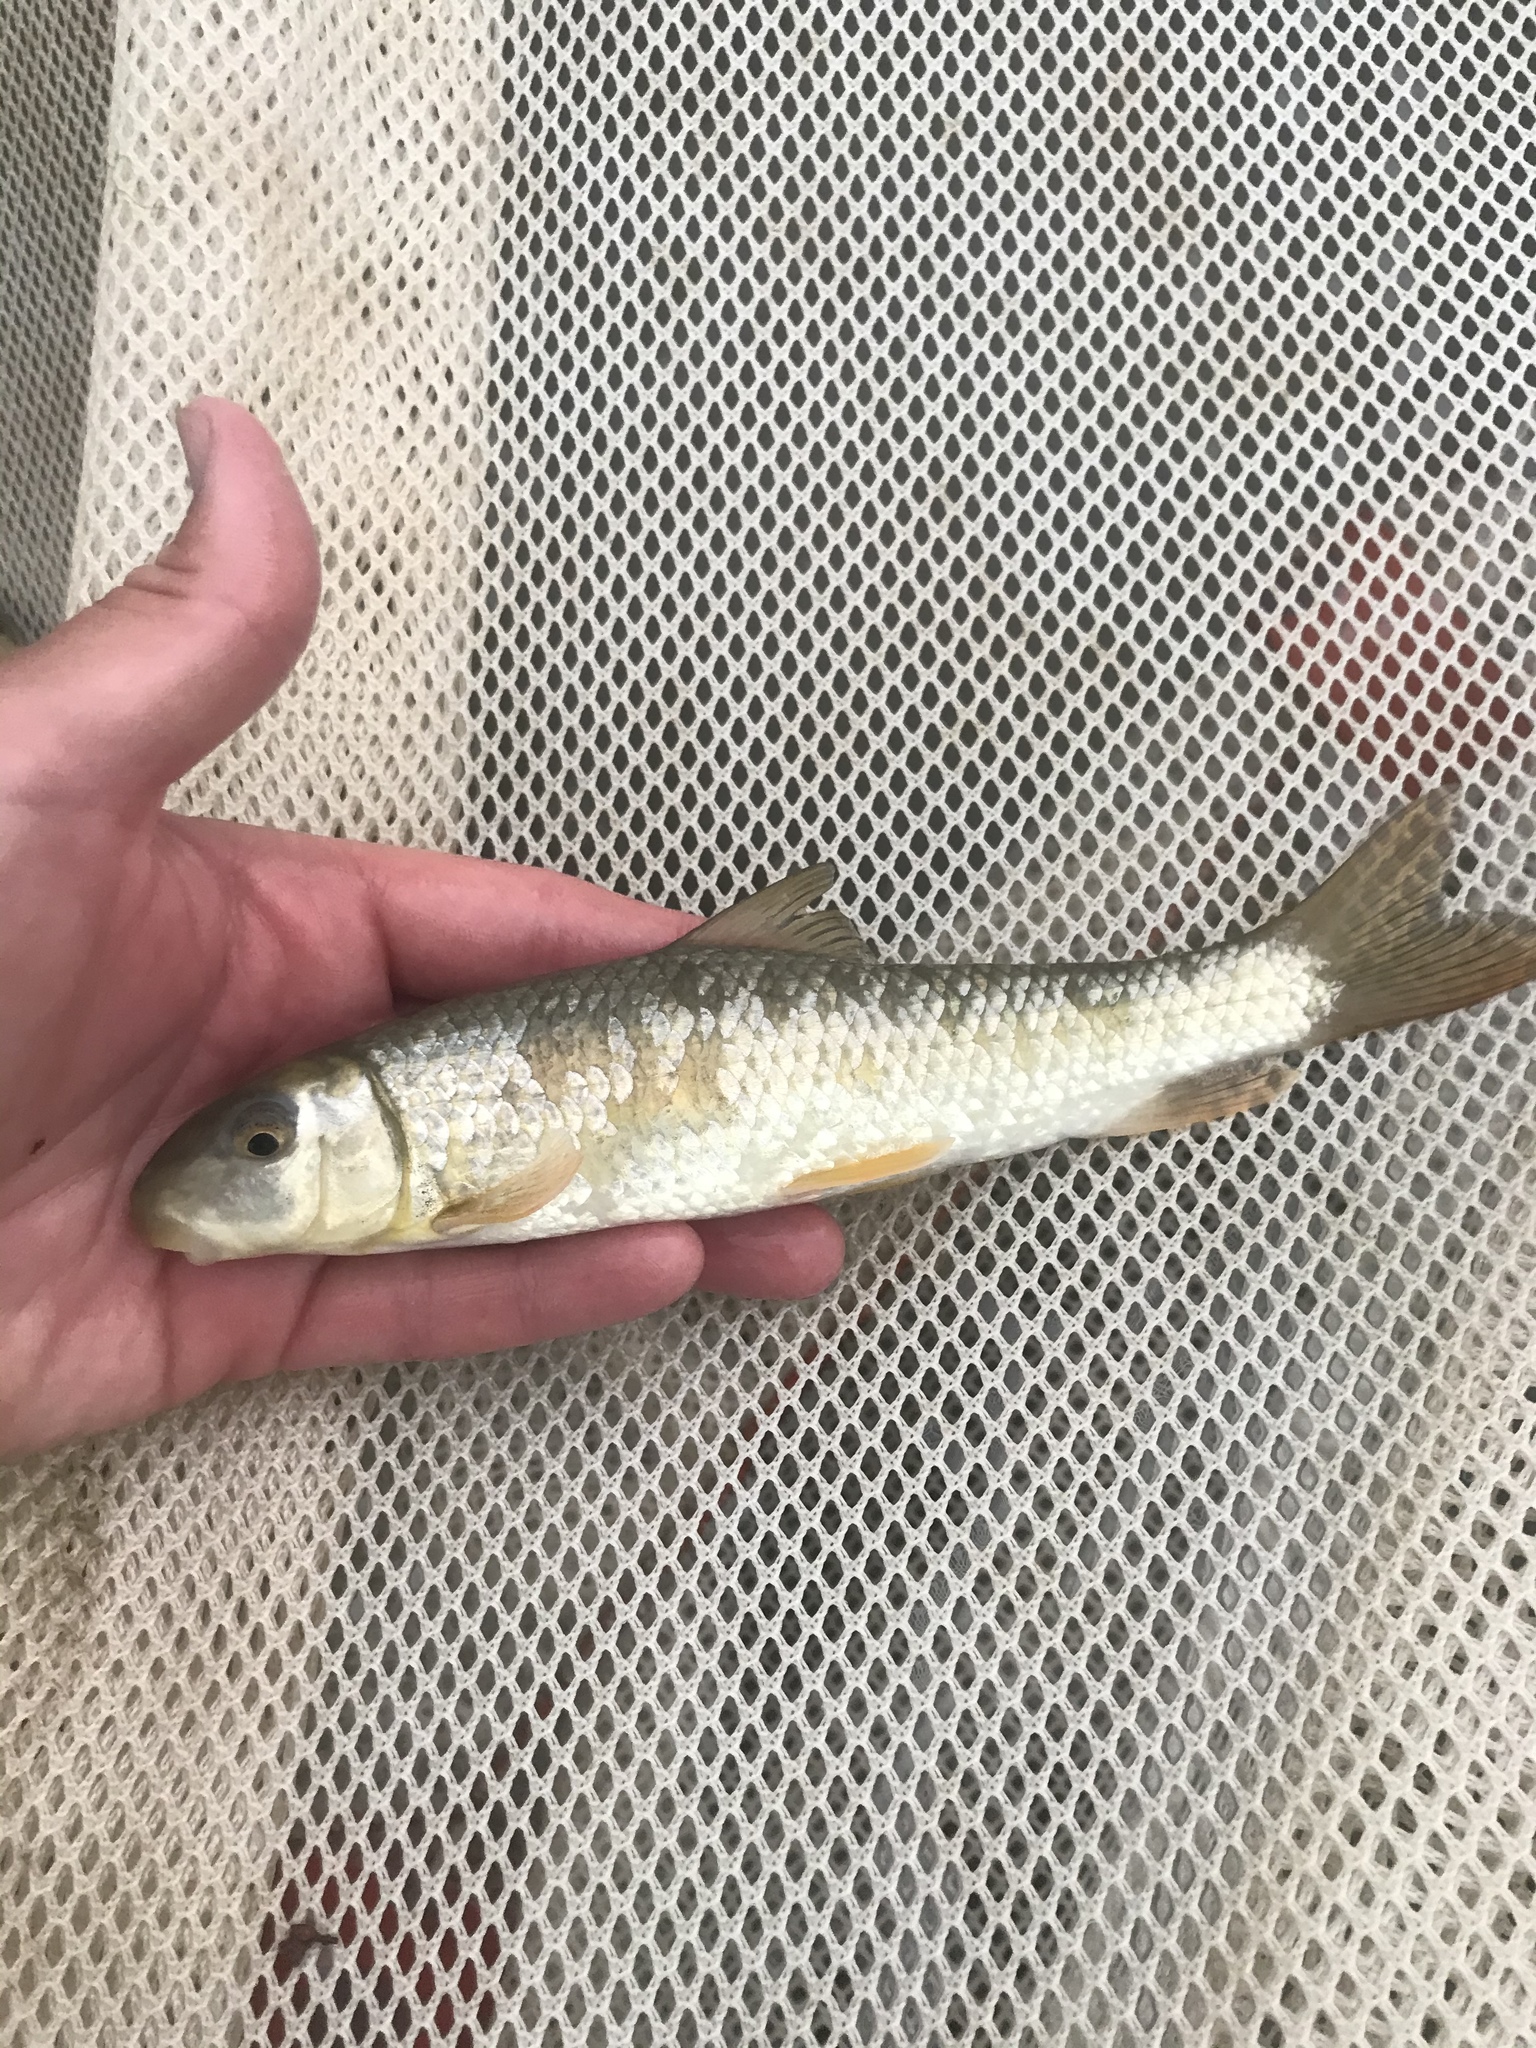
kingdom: Animalia
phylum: Chordata
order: Cypriniformes
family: Catostomidae
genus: Moxostoma
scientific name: Moxostoma congestum
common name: Gray redhorse
